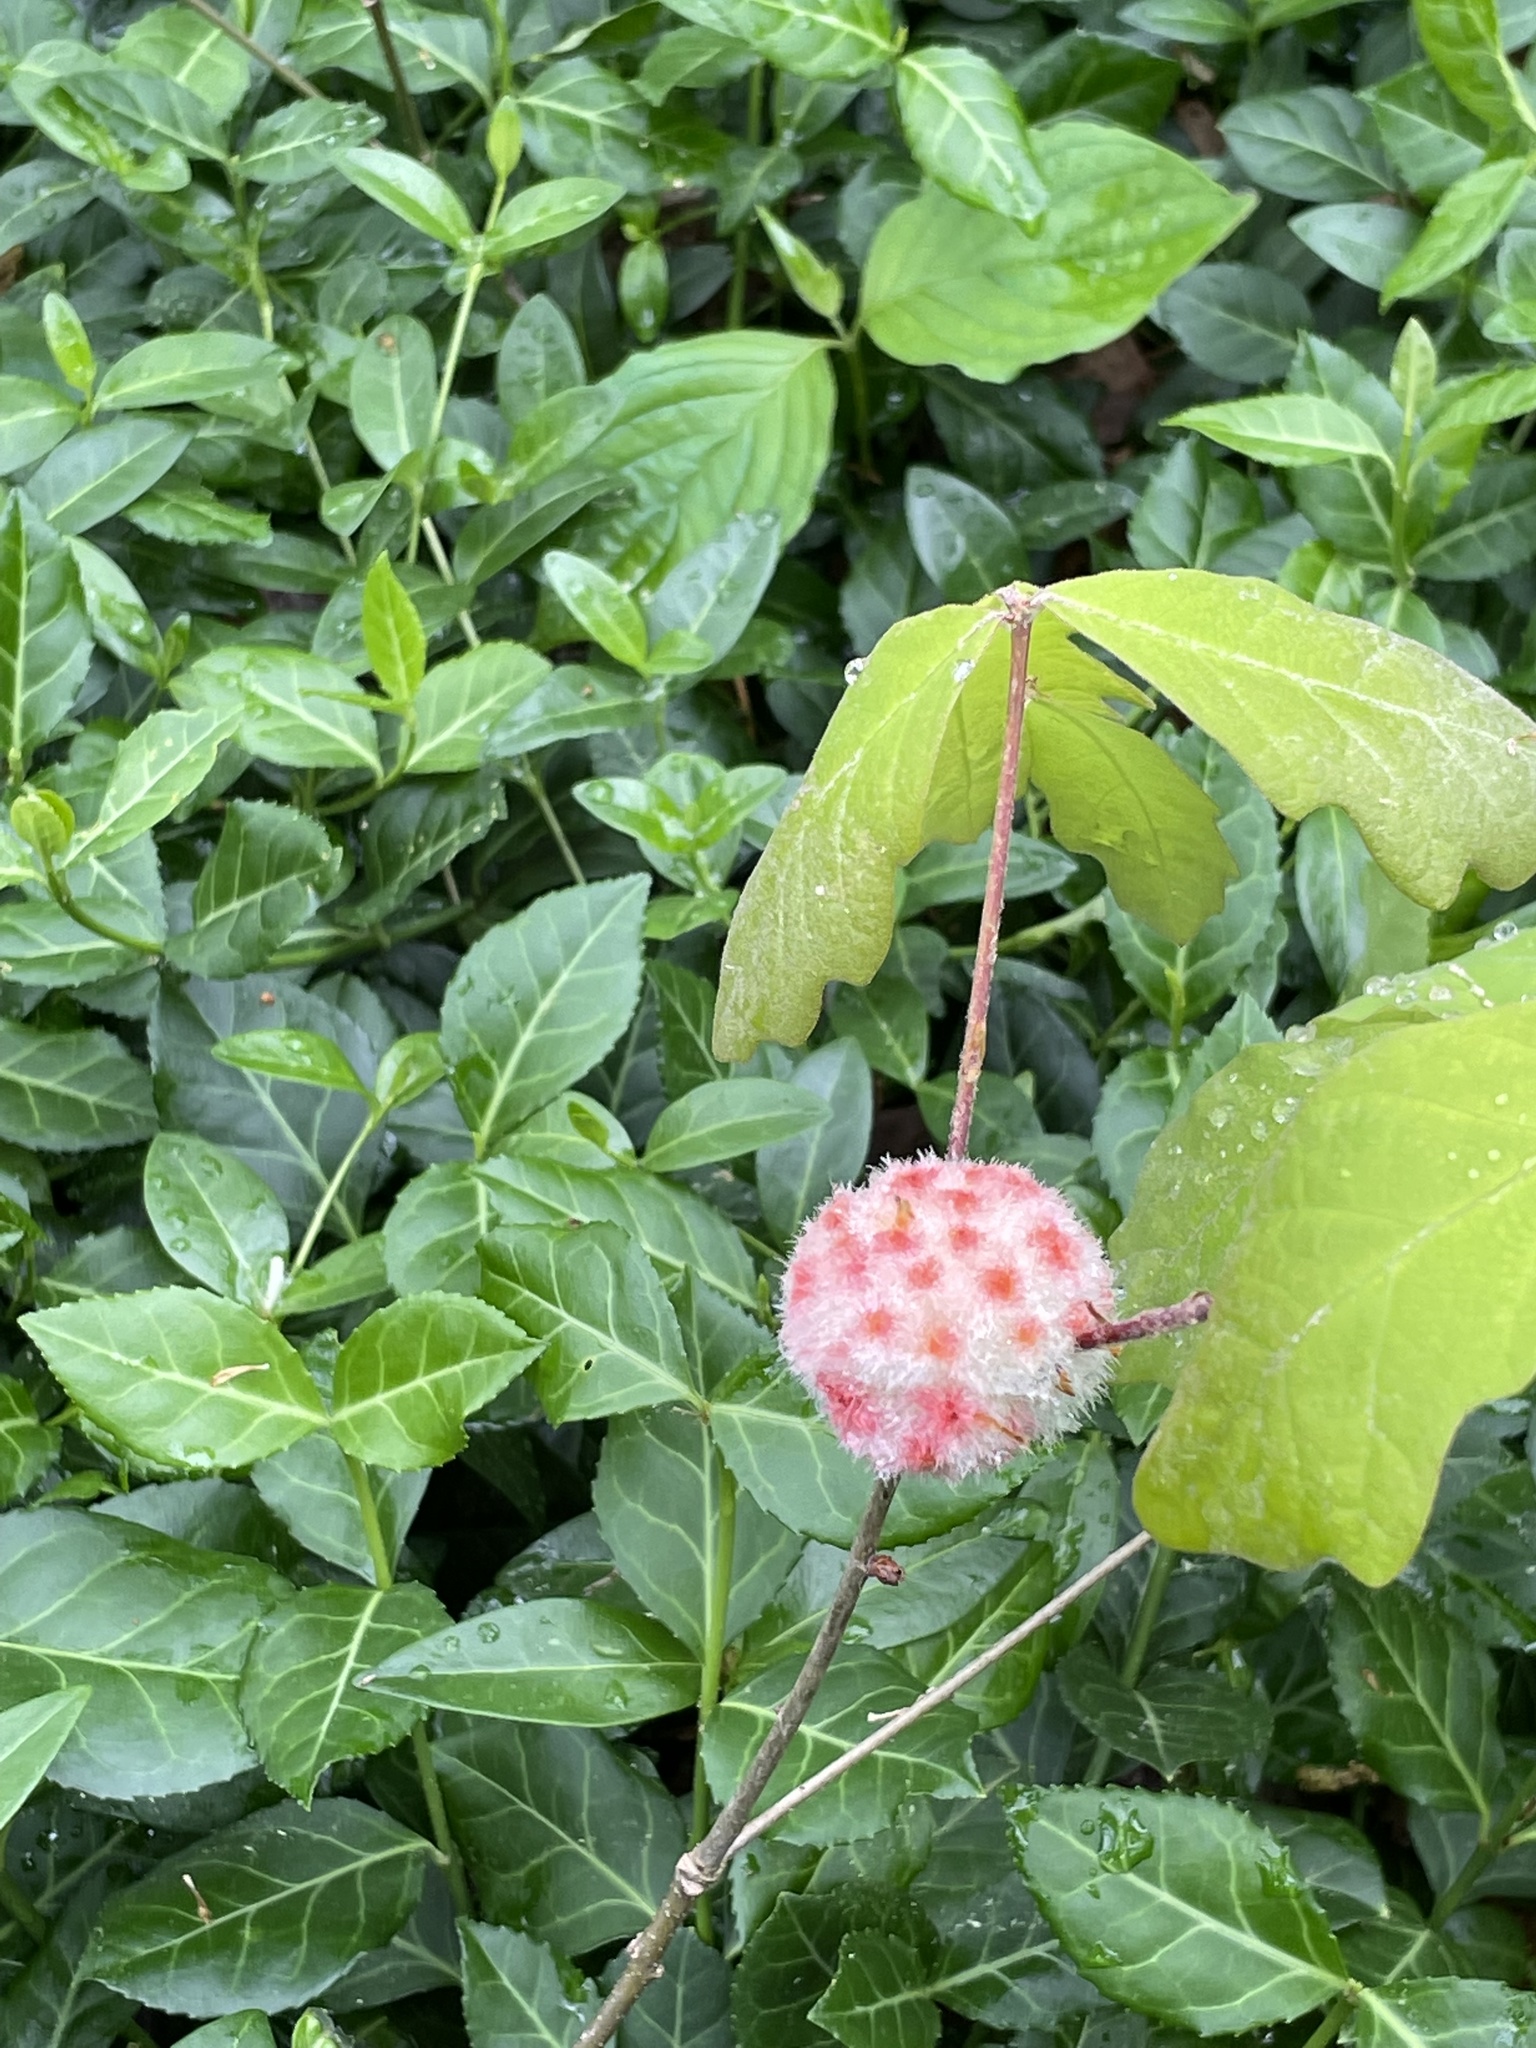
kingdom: Animalia
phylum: Arthropoda
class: Insecta
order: Hymenoptera
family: Cynipidae
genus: Callirhytis
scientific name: Callirhytis
